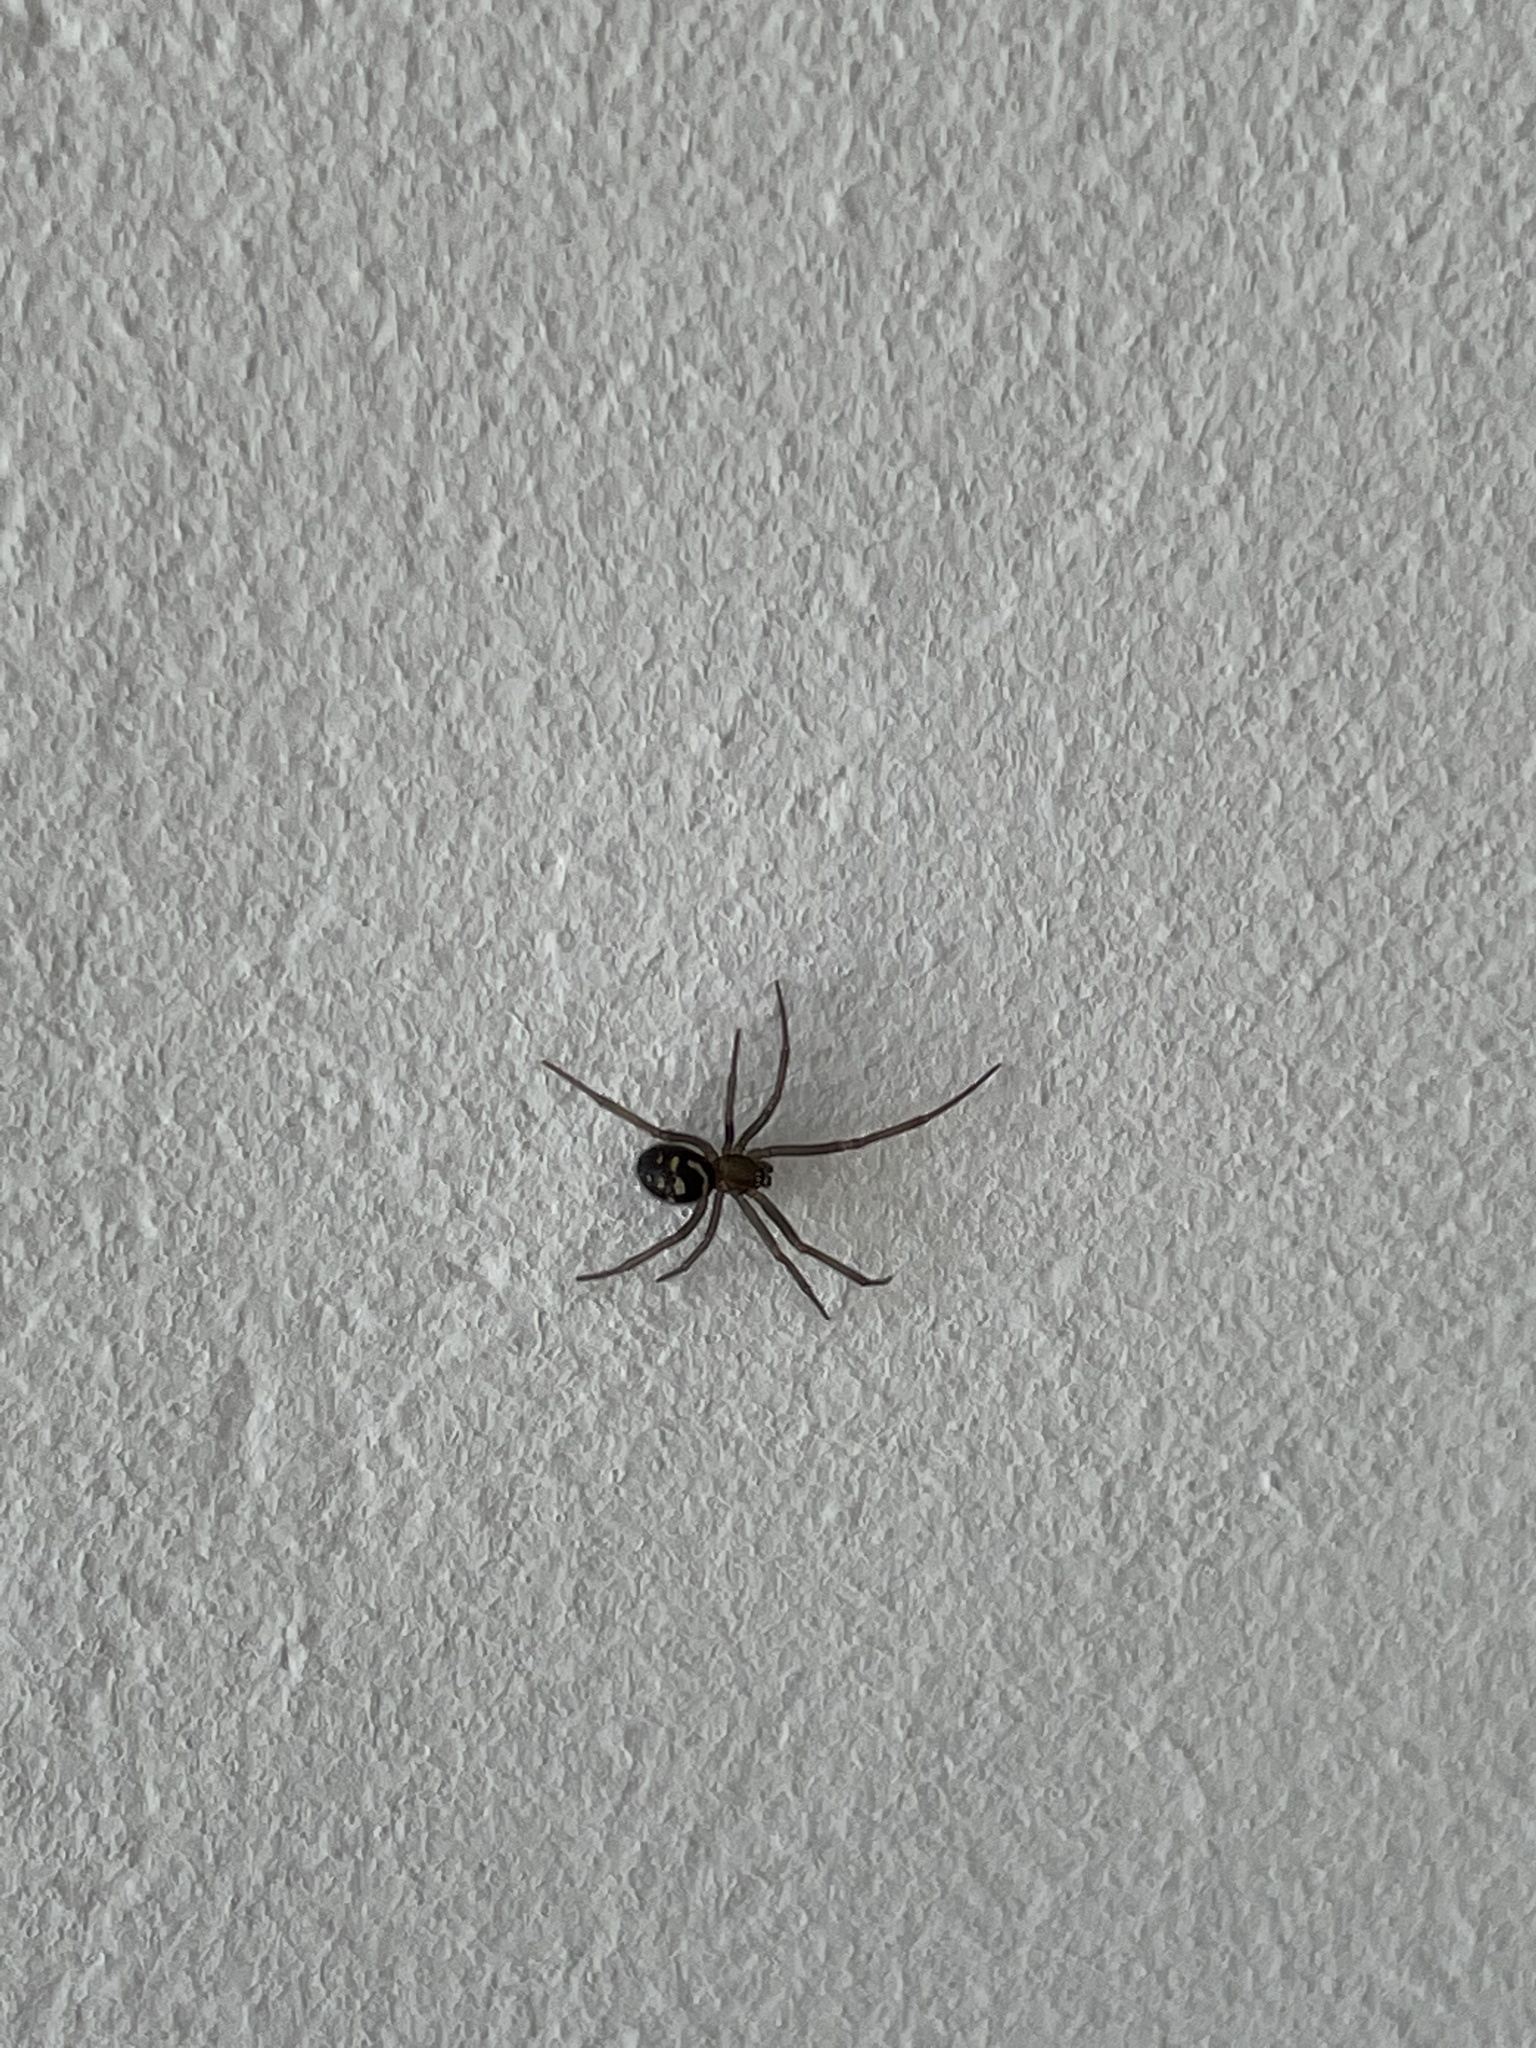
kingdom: Animalia
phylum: Arthropoda
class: Arachnida
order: Araneae
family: Theridiidae
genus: Steatoda
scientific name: Steatoda grossa
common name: False black widow
